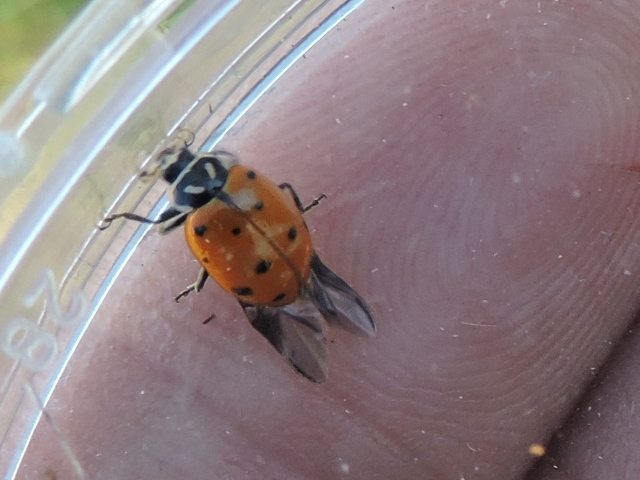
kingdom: Animalia
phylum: Arthropoda
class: Insecta
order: Coleoptera
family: Coccinellidae
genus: Hippodamia
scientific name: Hippodamia convergens
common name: Convergent lady beetle
